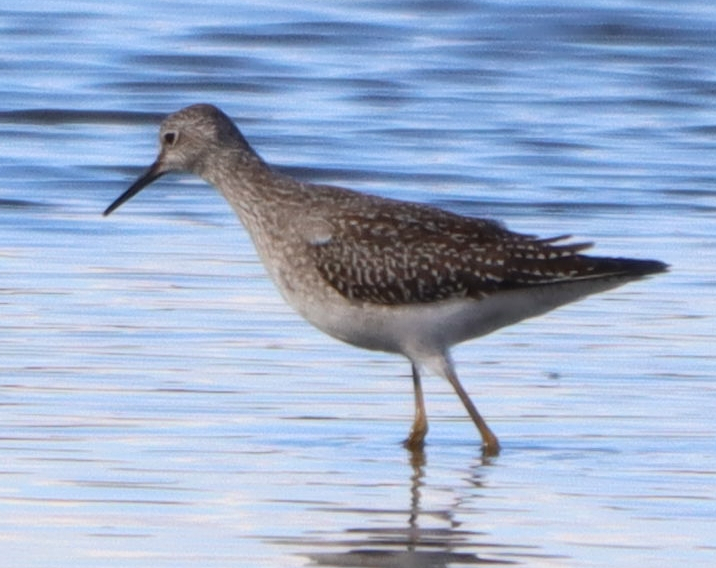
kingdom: Animalia
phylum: Chordata
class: Aves
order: Charadriiformes
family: Scolopacidae
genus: Tringa
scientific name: Tringa melanoleuca
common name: Greater yellowlegs
